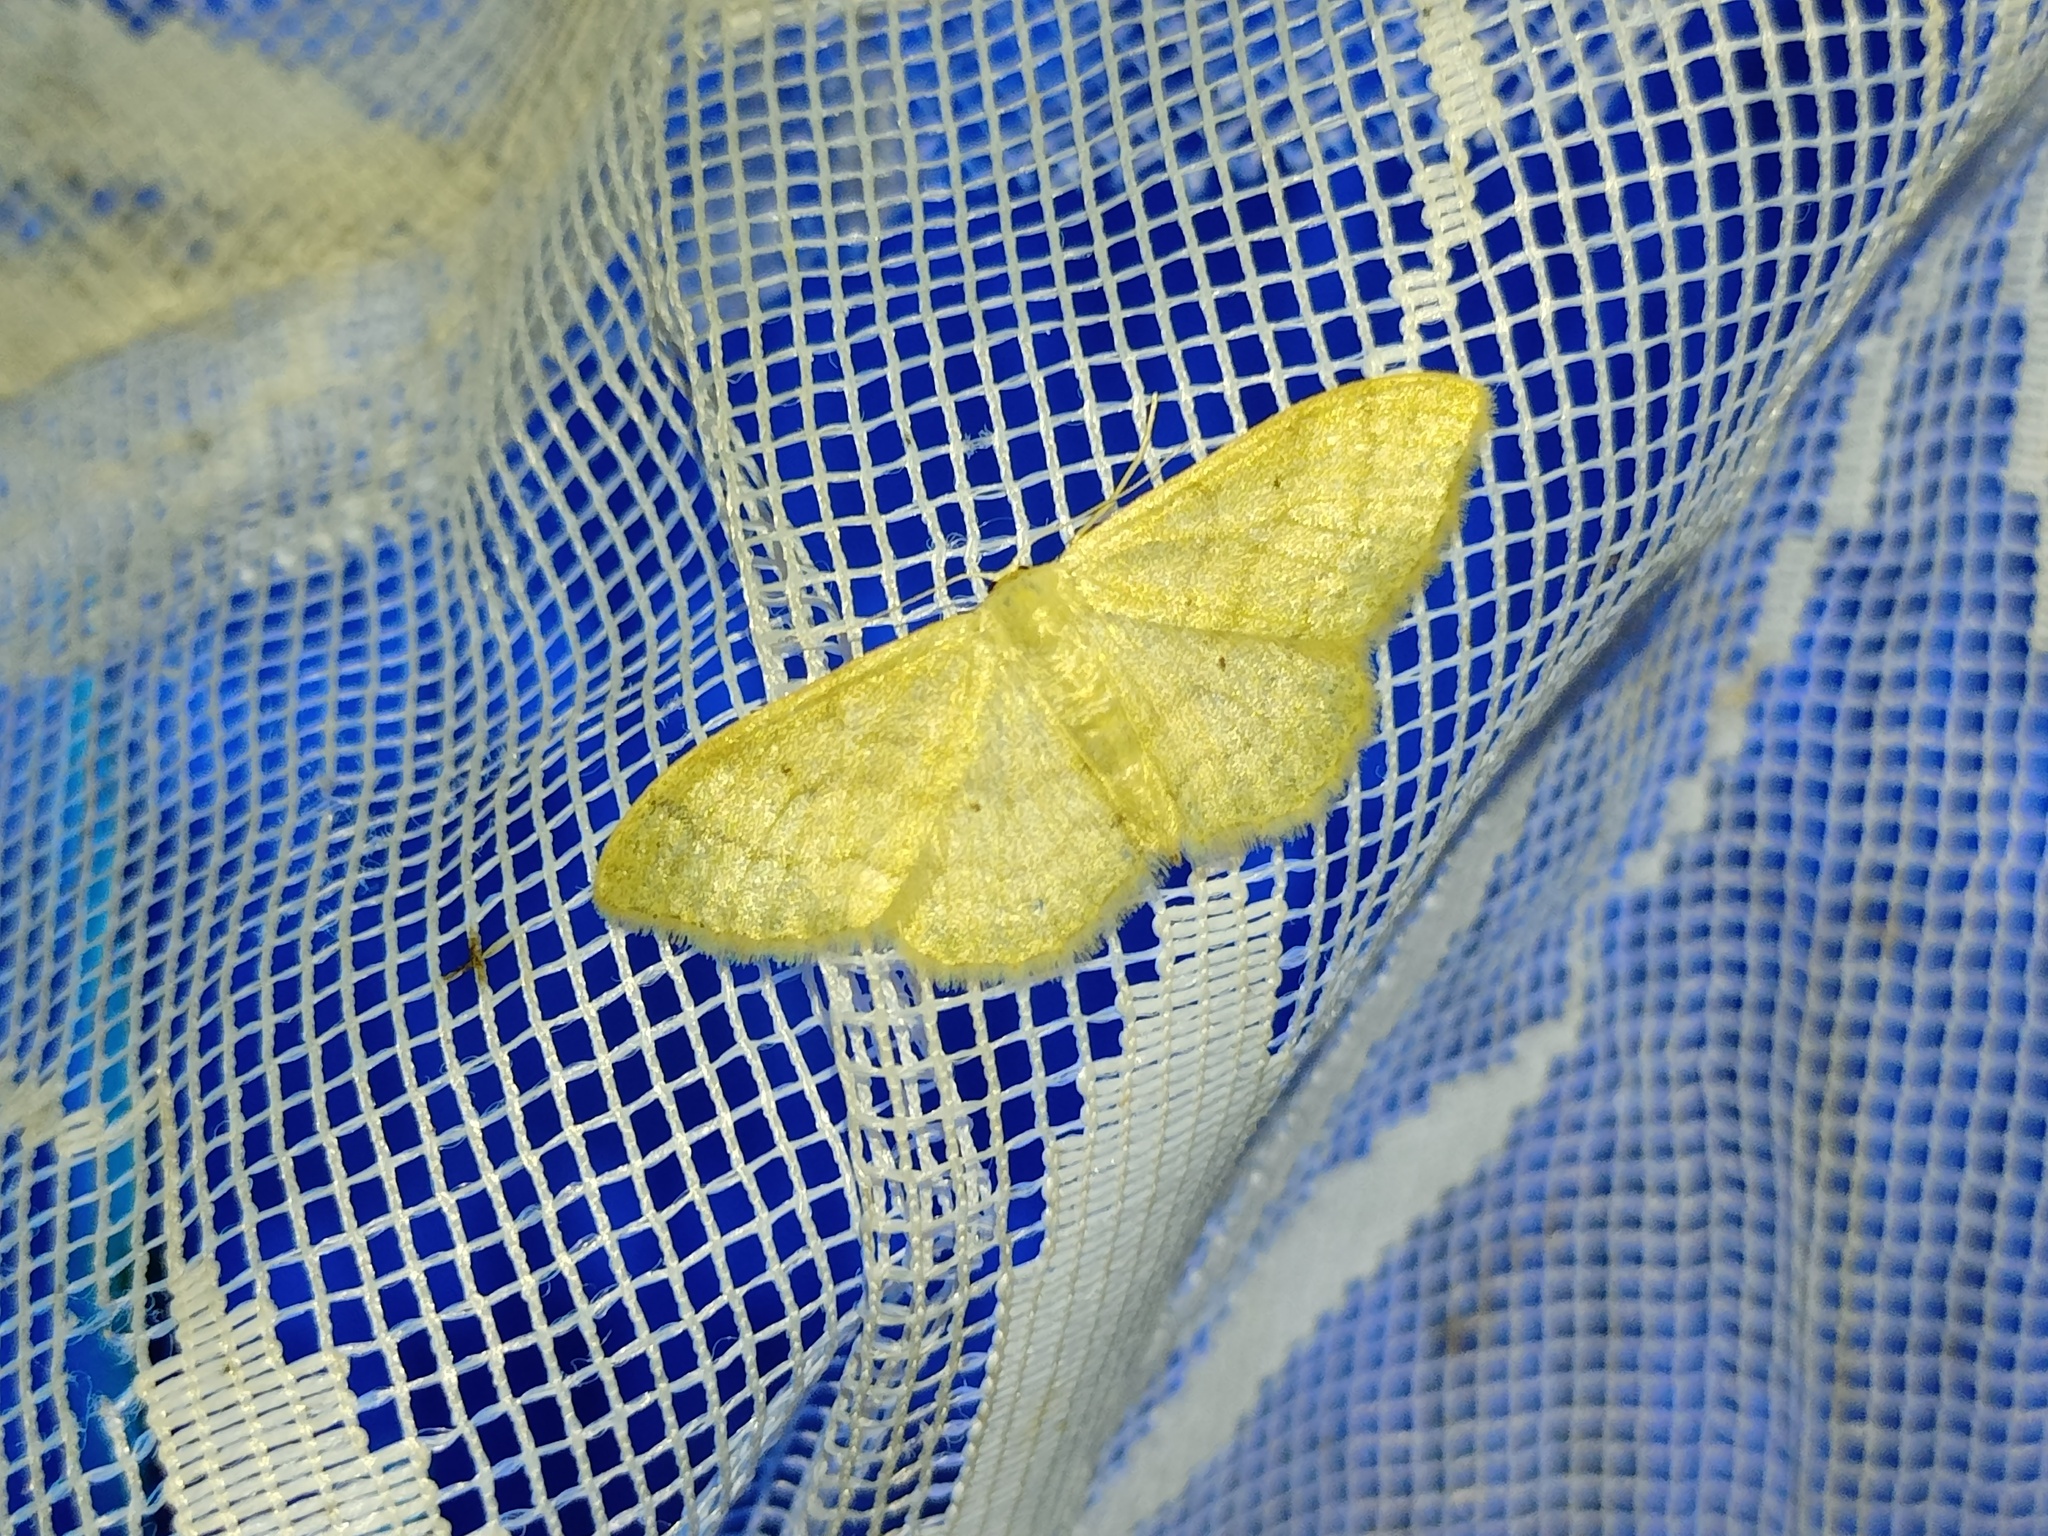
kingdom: Animalia
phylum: Arthropoda
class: Insecta
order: Lepidoptera
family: Geometridae
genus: Idaea
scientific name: Idaea straminata
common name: Plain wave
